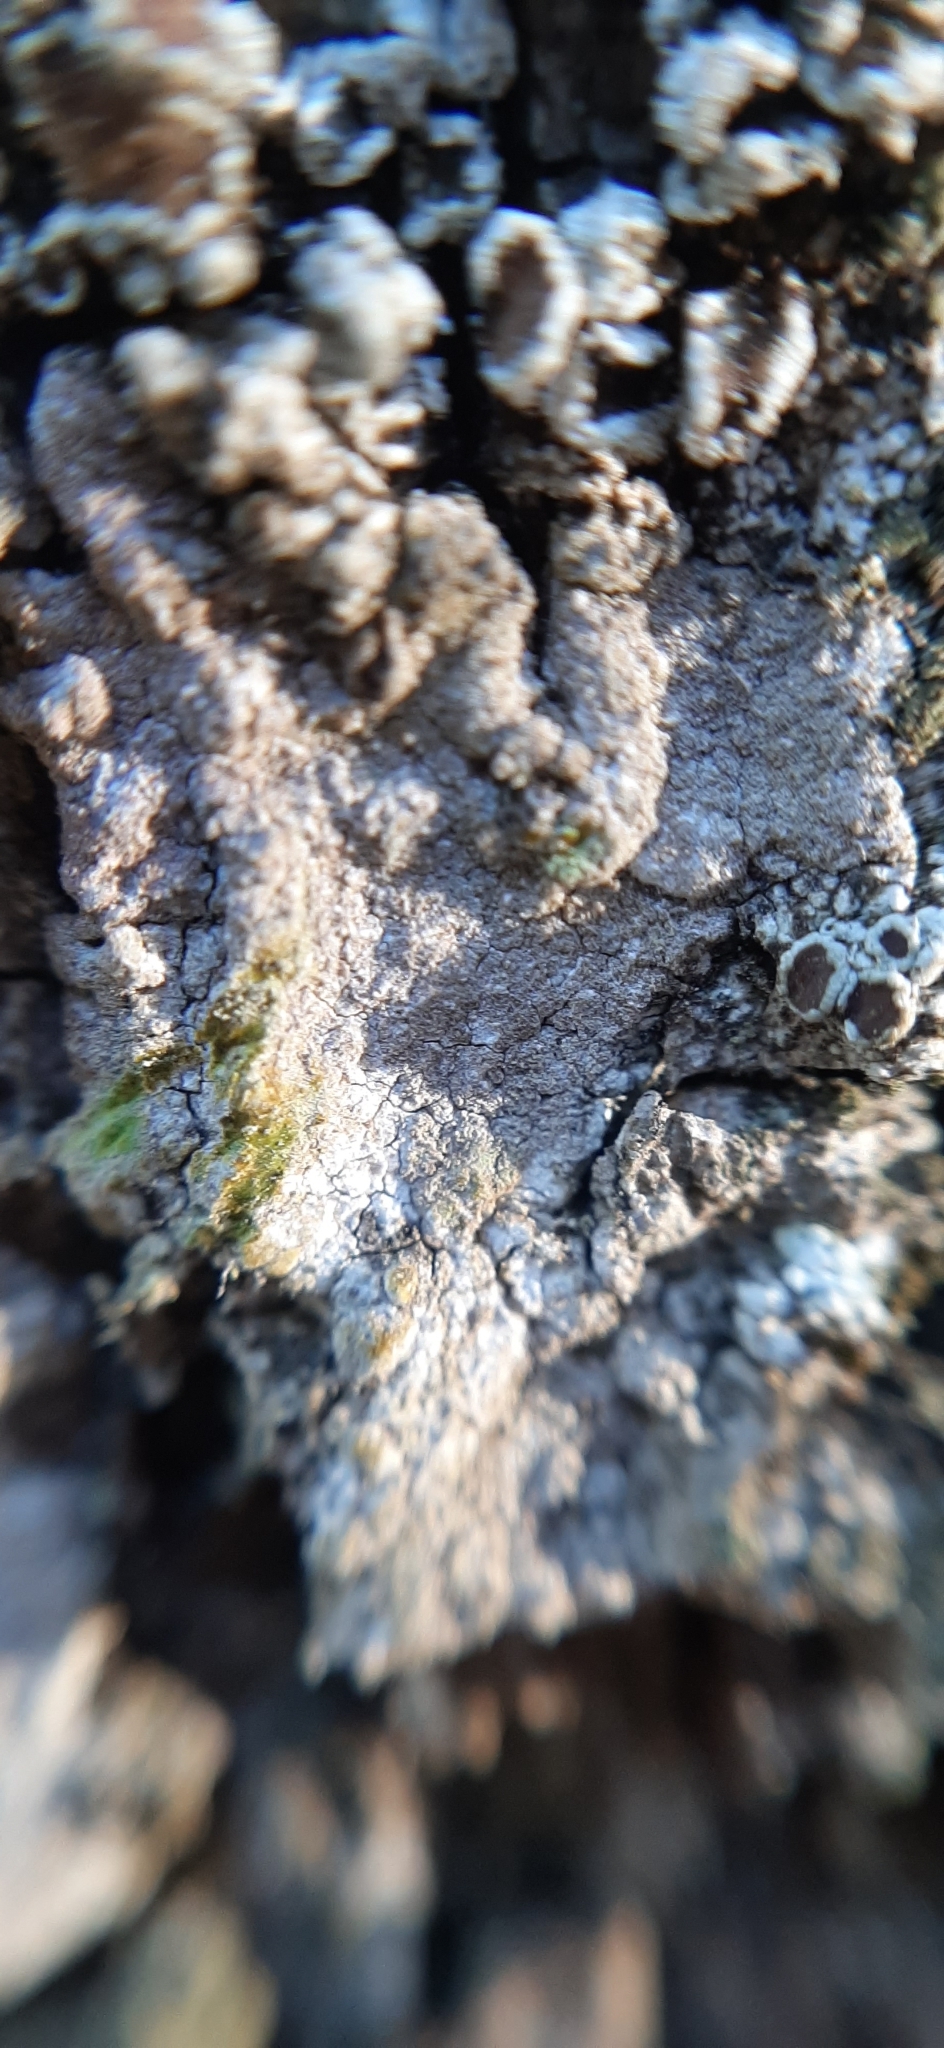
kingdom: Fungi
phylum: Ascomycota
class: Arthoniomycetes
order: Arthoniales
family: Roccellaceae
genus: Dendrographa
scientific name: Dendrographa decolorans
